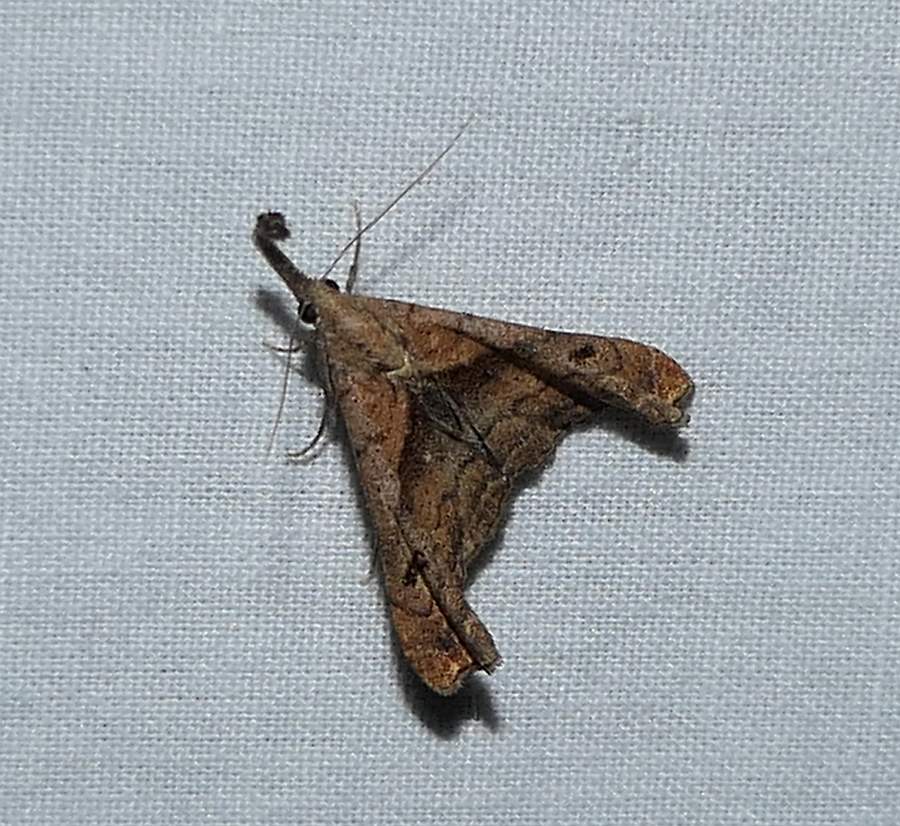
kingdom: Animalia
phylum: Arthropoda
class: Insecta
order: Lepidoptera
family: Erebidae
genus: Palthis
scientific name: Palthis angulalis
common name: Dark-spotted palthis moth
